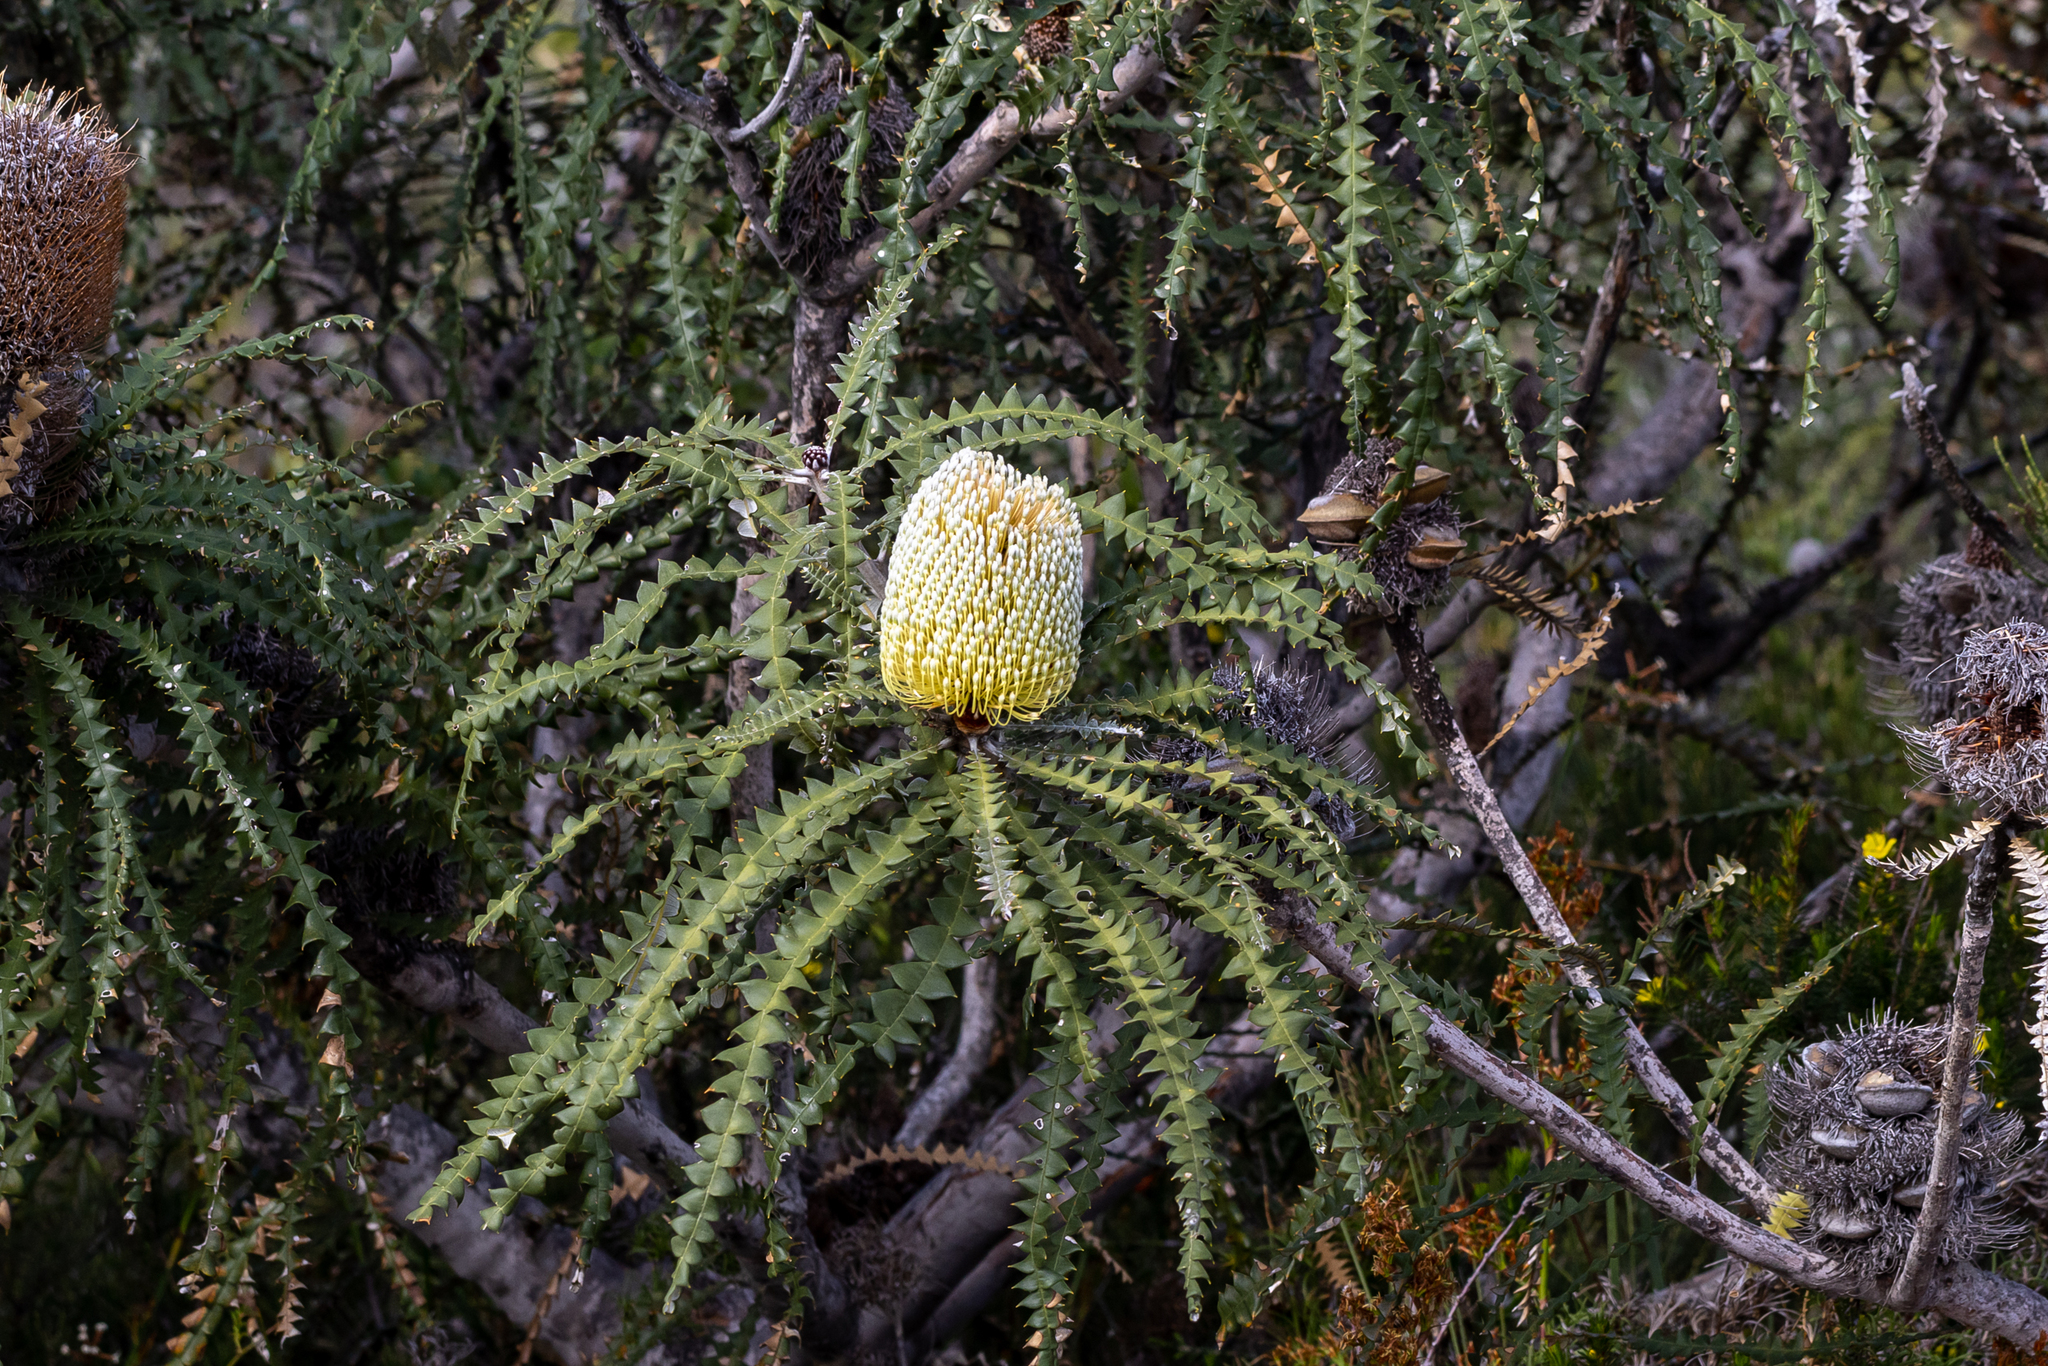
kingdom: Plantae
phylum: Tracheophyta
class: Magnoliopsida
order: Proteales
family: Proteaceae
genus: Banksia
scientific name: Banksia speciosa
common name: Showy banksia
